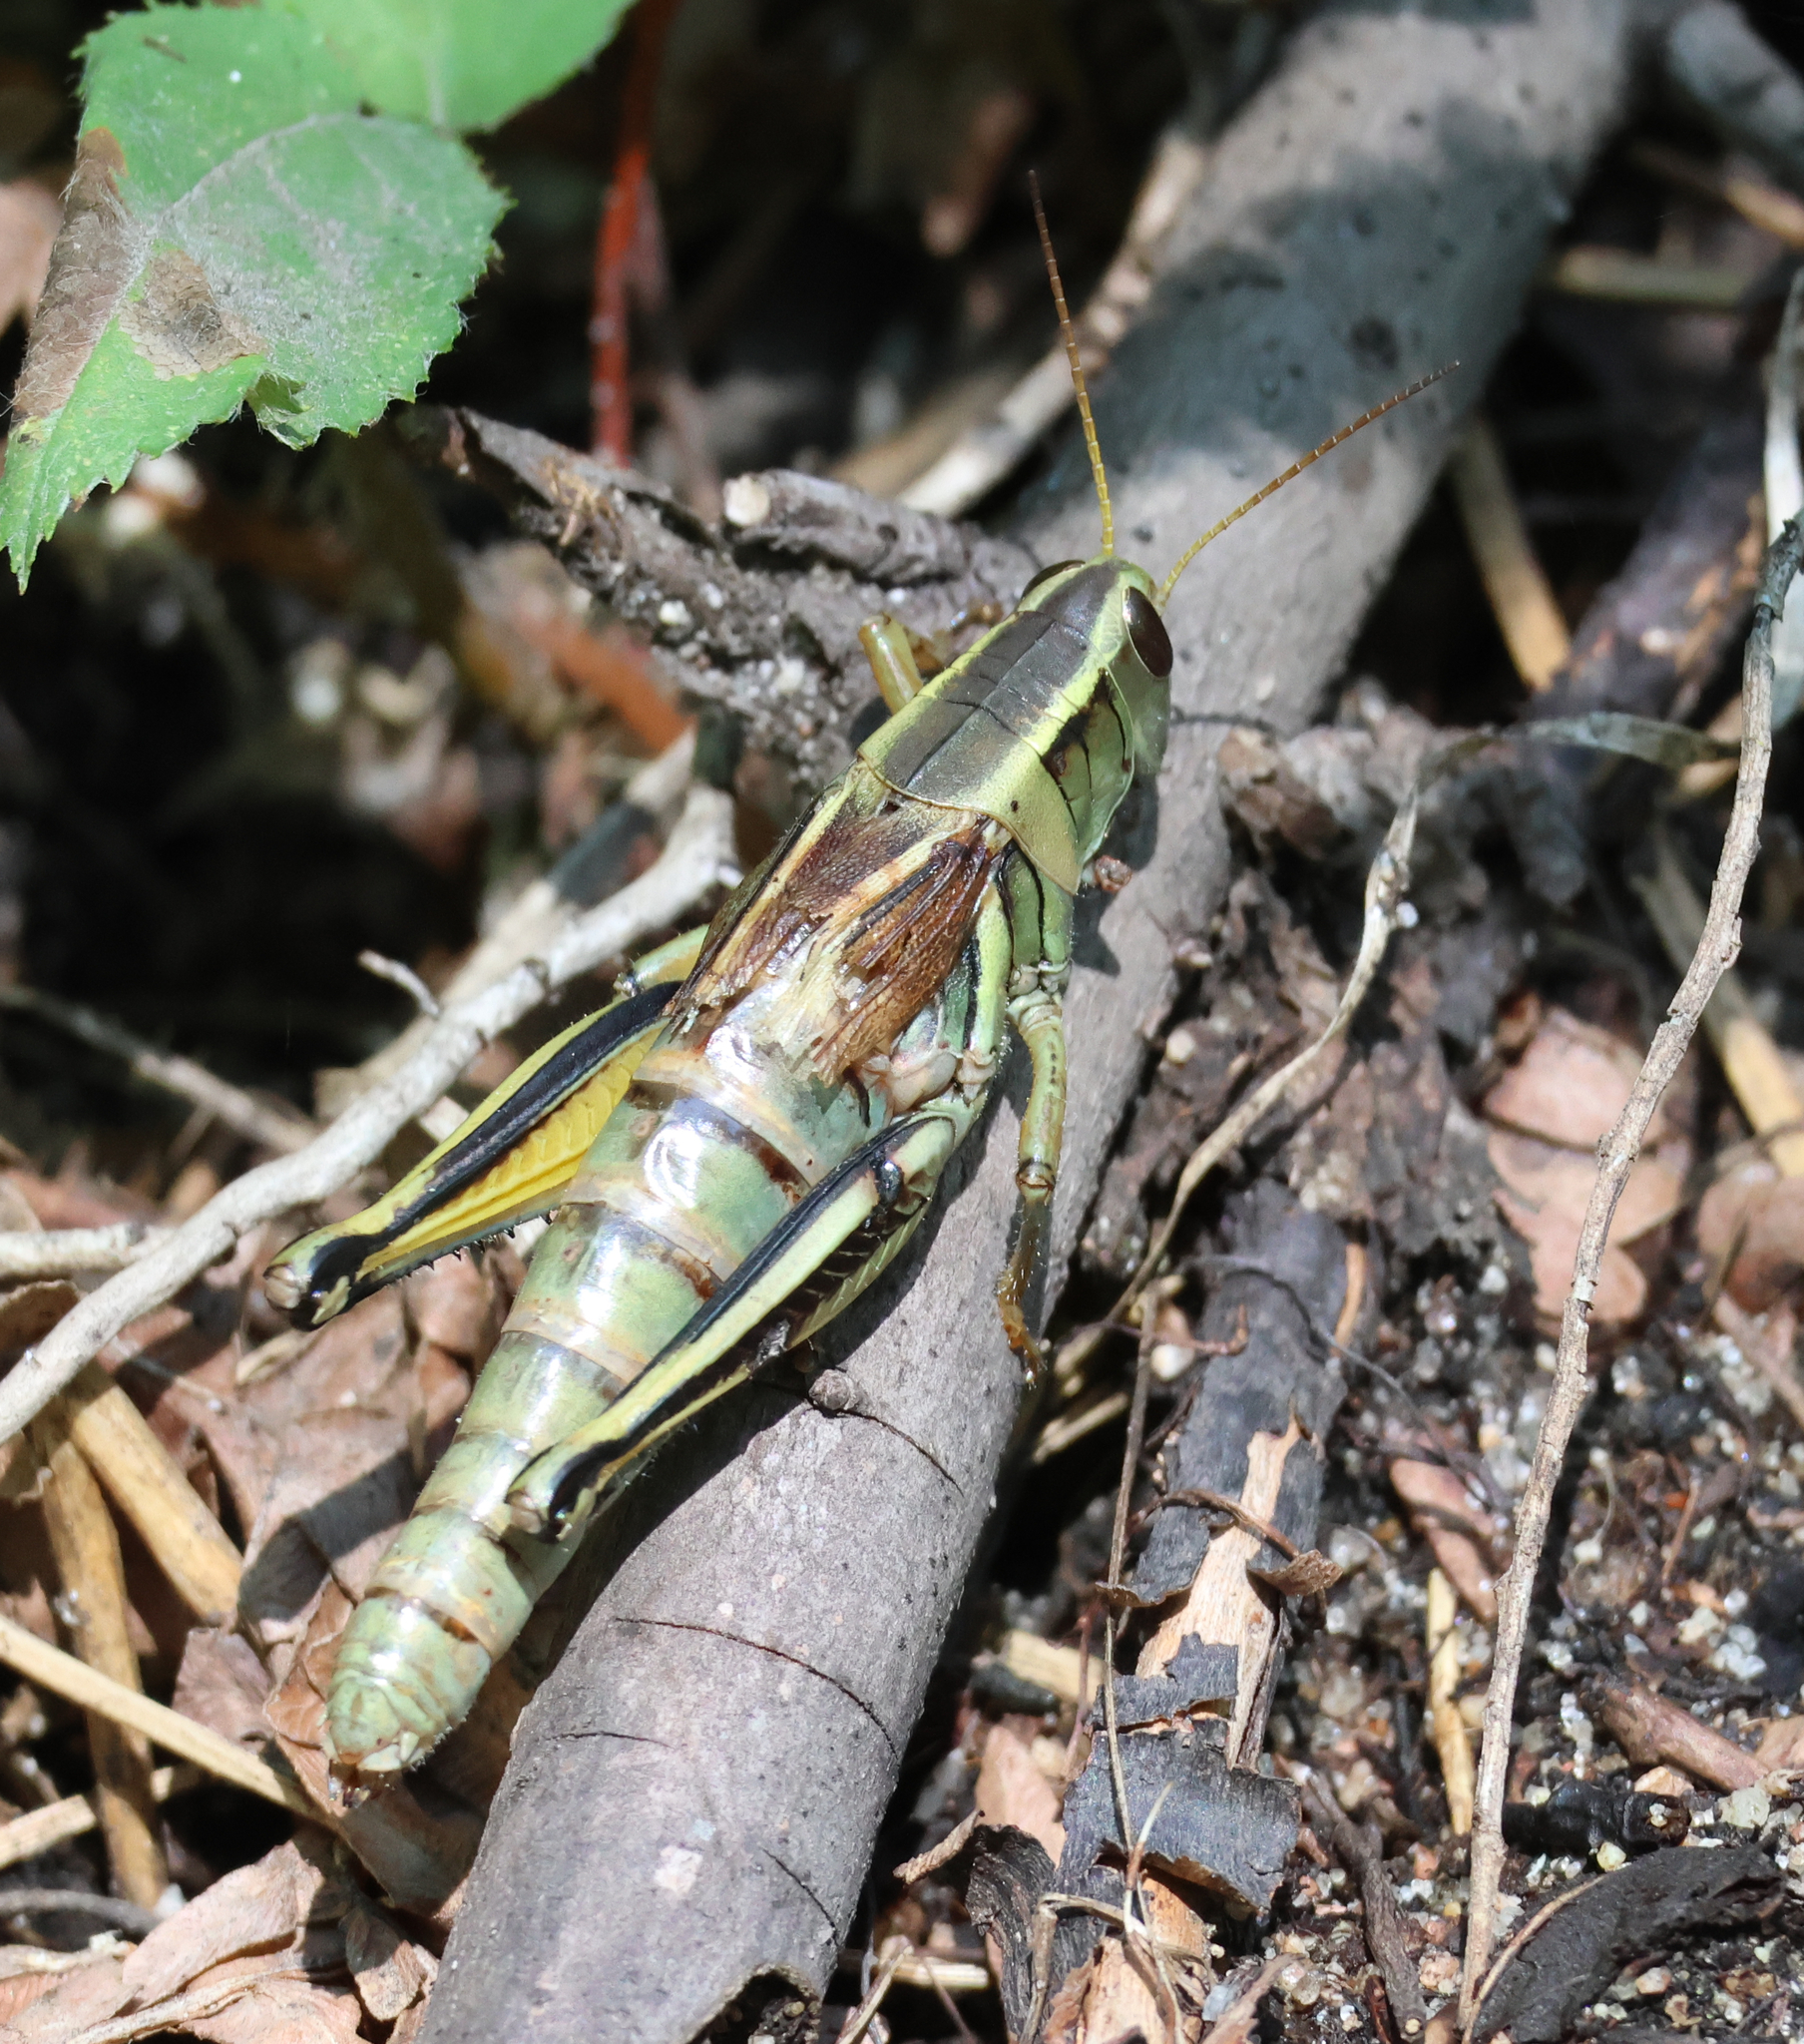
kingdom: Animalia
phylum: Arthropoda
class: Insecta
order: Orthoptera
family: Acrididae
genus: Melanoplus
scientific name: Melanoplus bivittatus
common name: Two-striped grasshopper
